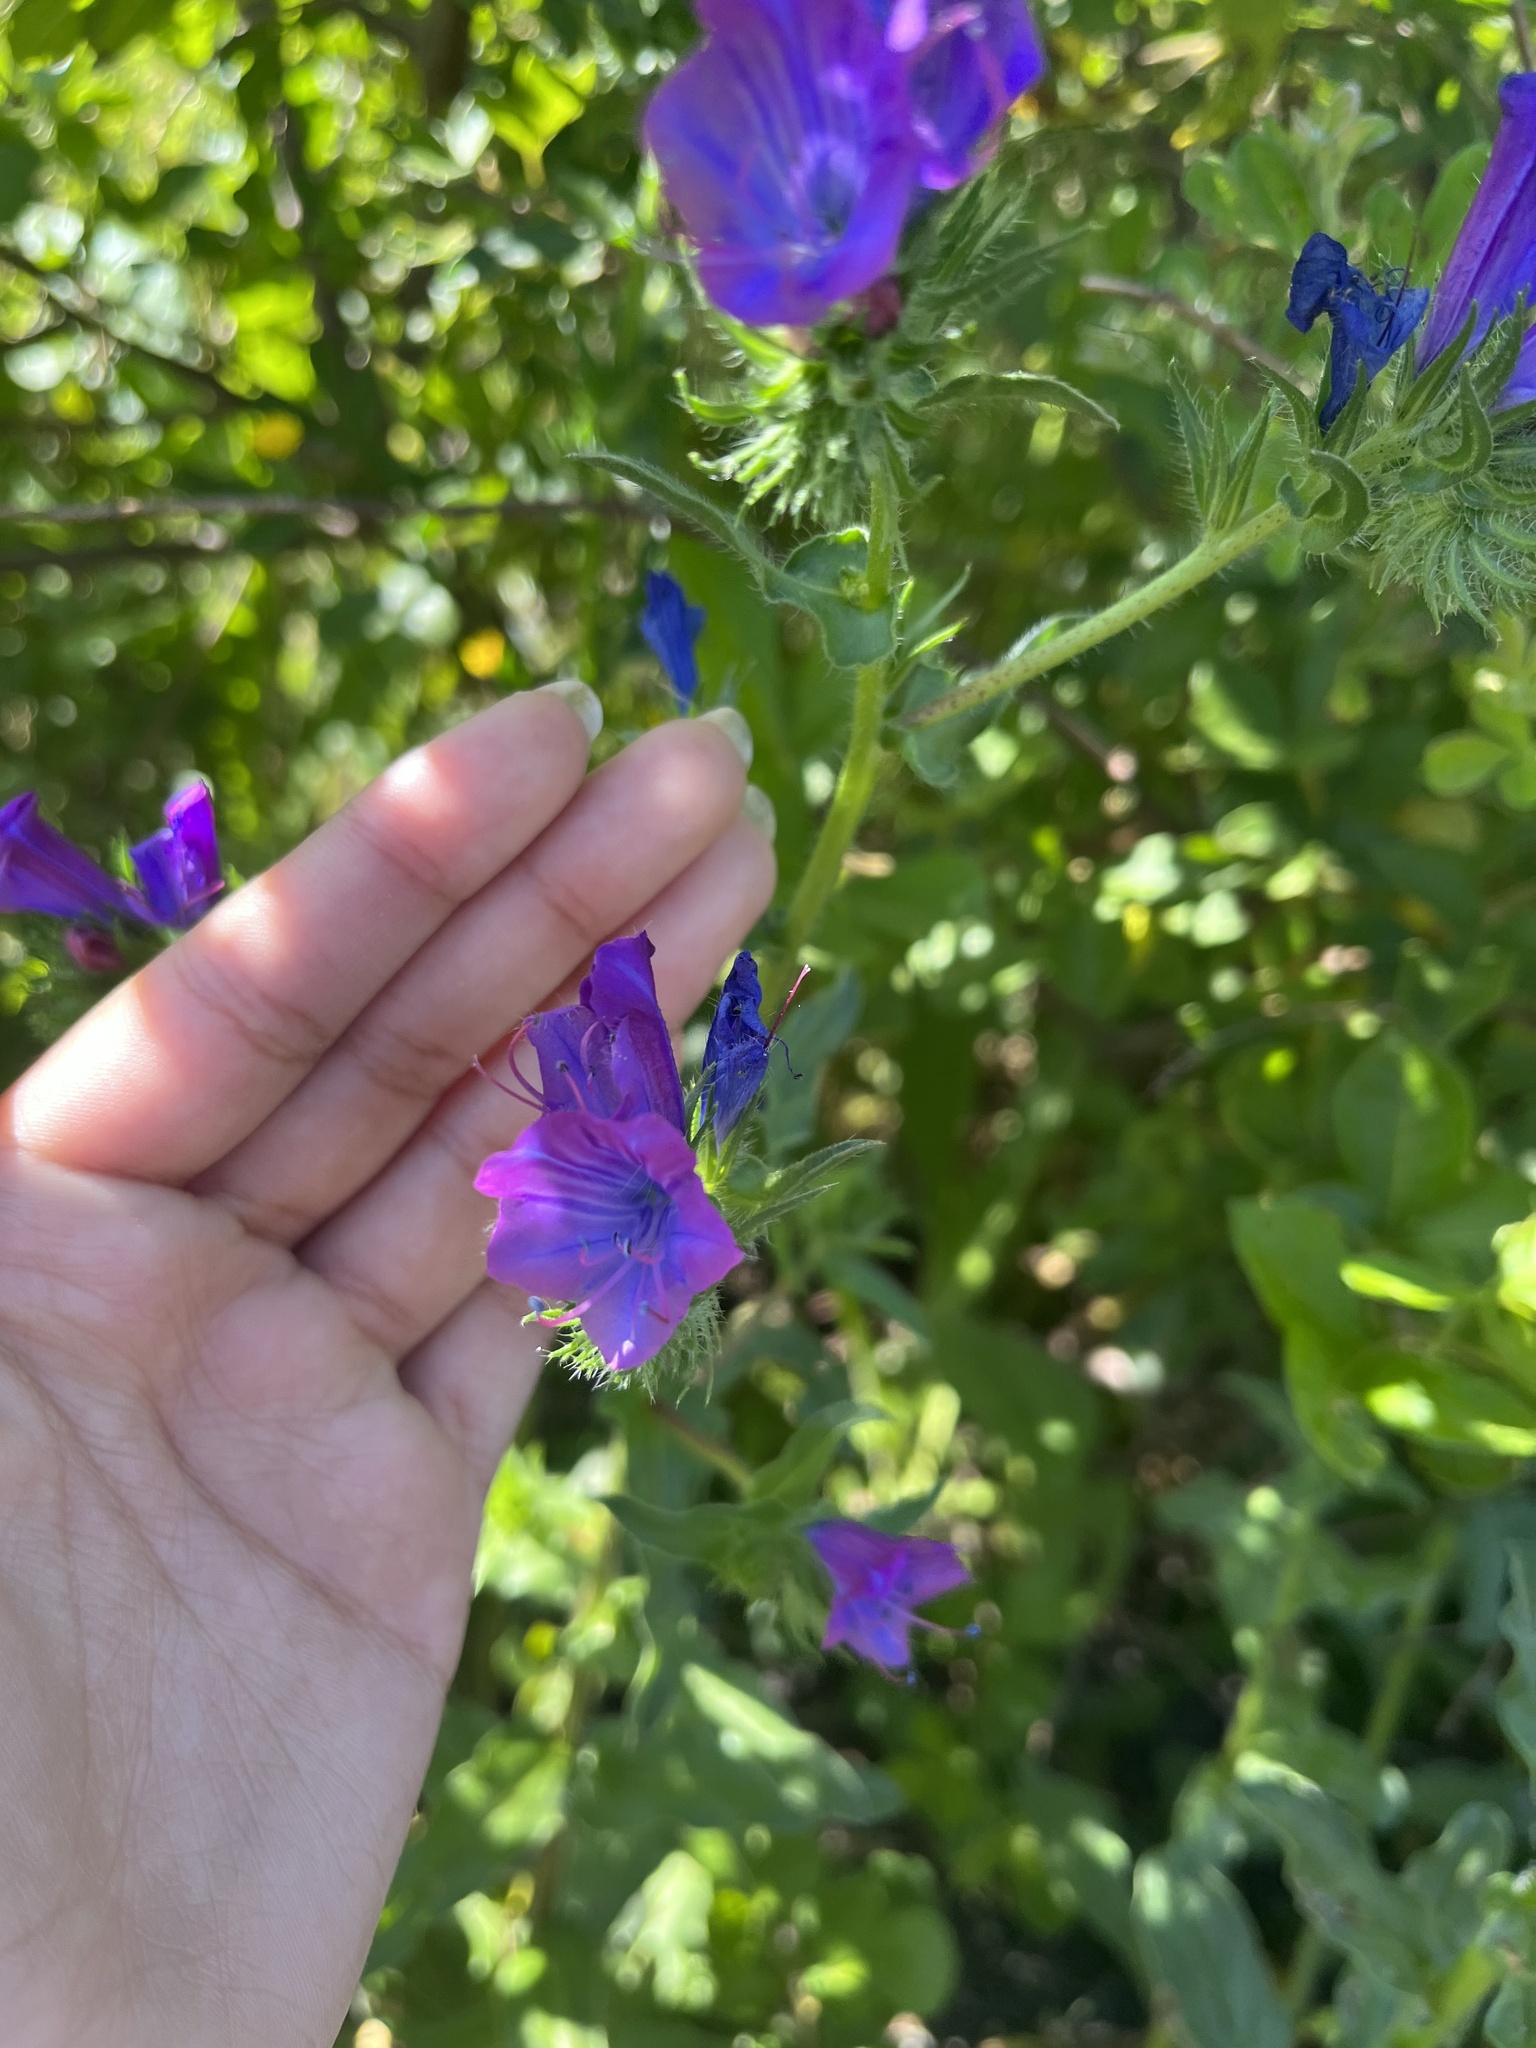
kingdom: Plantae
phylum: Tracheophyta
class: Magnoliopsida
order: Boraginales
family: Boraginaceae
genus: Echium
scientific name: Echium plantagineum
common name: Purple viper's-bugloss
